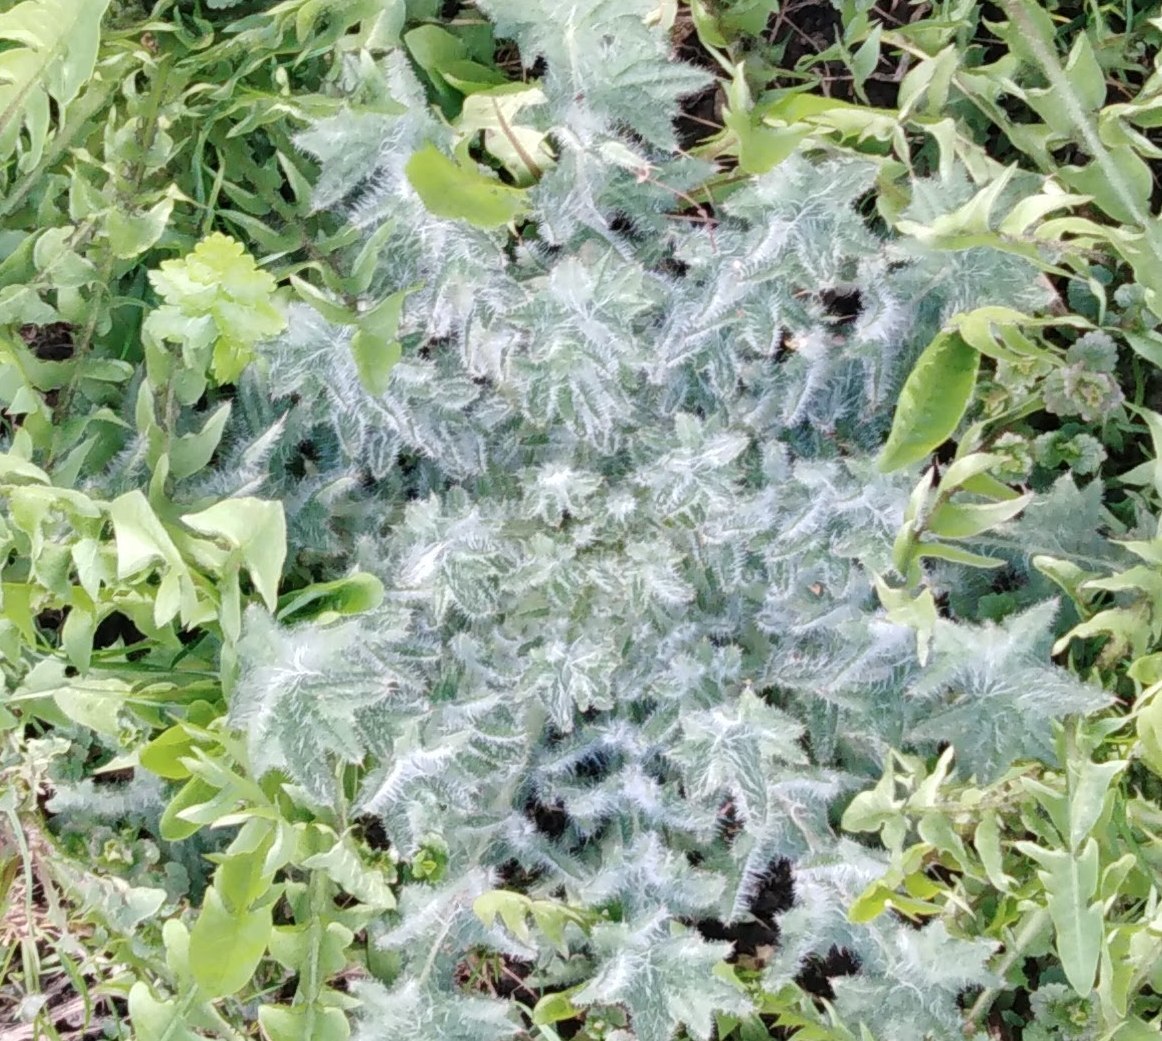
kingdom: Plantae
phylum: Tracheophyta
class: Magnoliopsida
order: Asterales
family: Asteraceae
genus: Cirsium
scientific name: Cirsium vulgare
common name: Bull thistle
